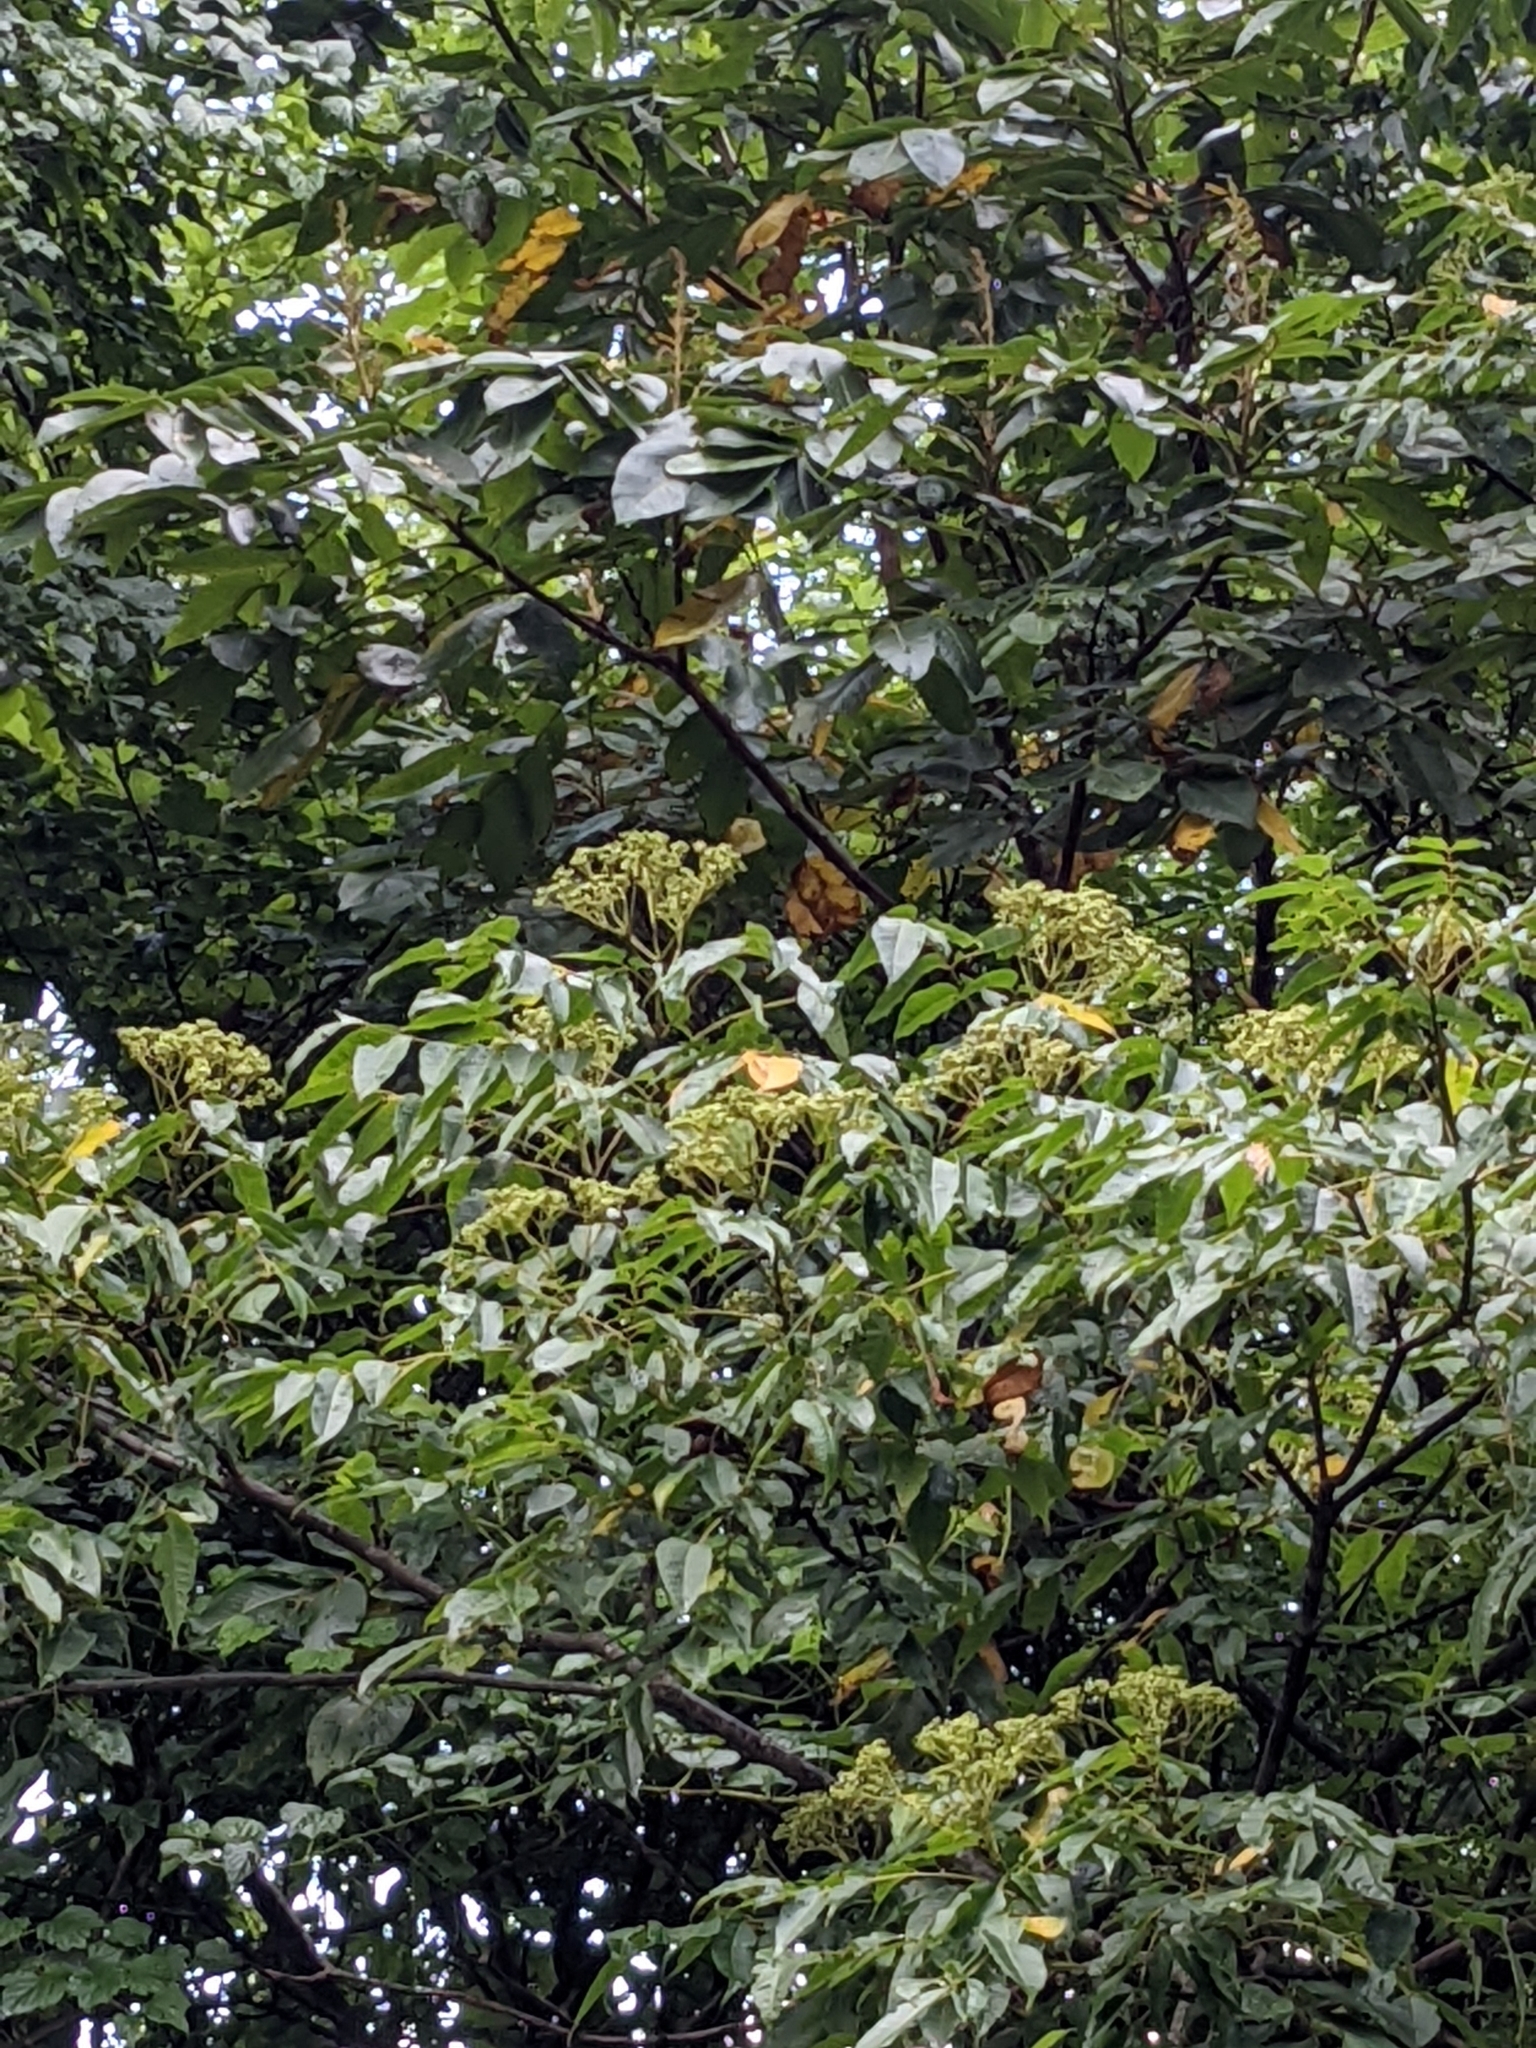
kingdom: Plantae
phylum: Tracheophyta
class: Magnoliopsida
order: Sapindales
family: Rutaceae
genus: Zanthoxylum
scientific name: Zanthoxylum ailanthoides
